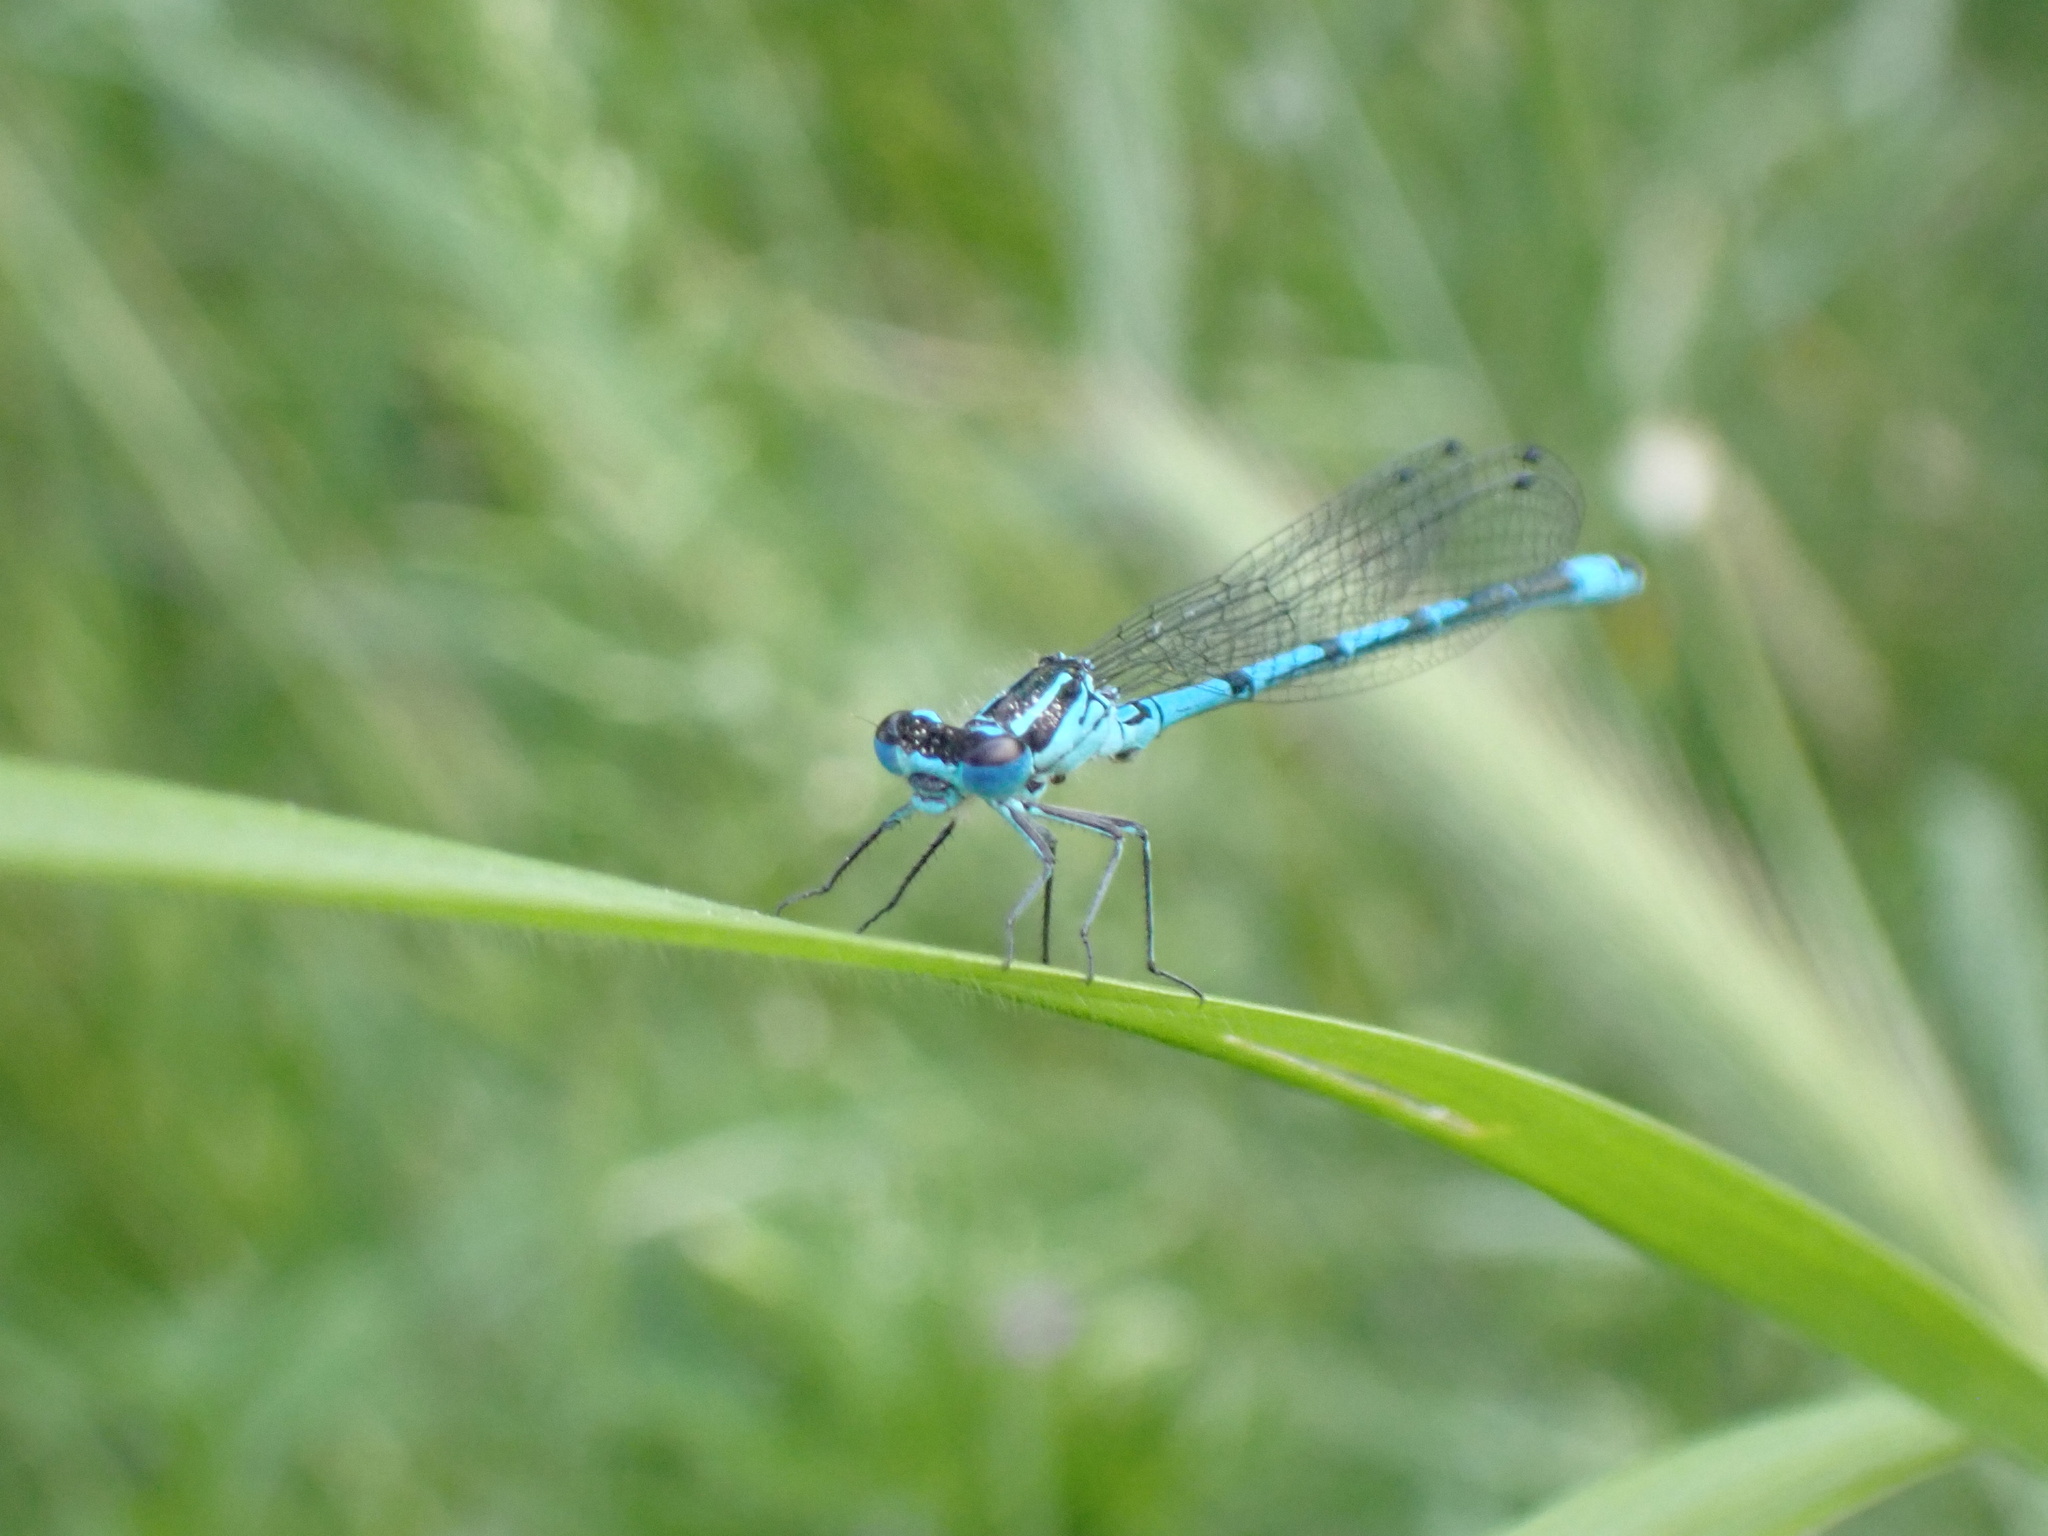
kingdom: Animalia
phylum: Arthropoda
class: Insecta
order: Odonata
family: Coenagrionidae
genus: Coenagrion
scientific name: Coenagrion puella
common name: Azure damselfly
